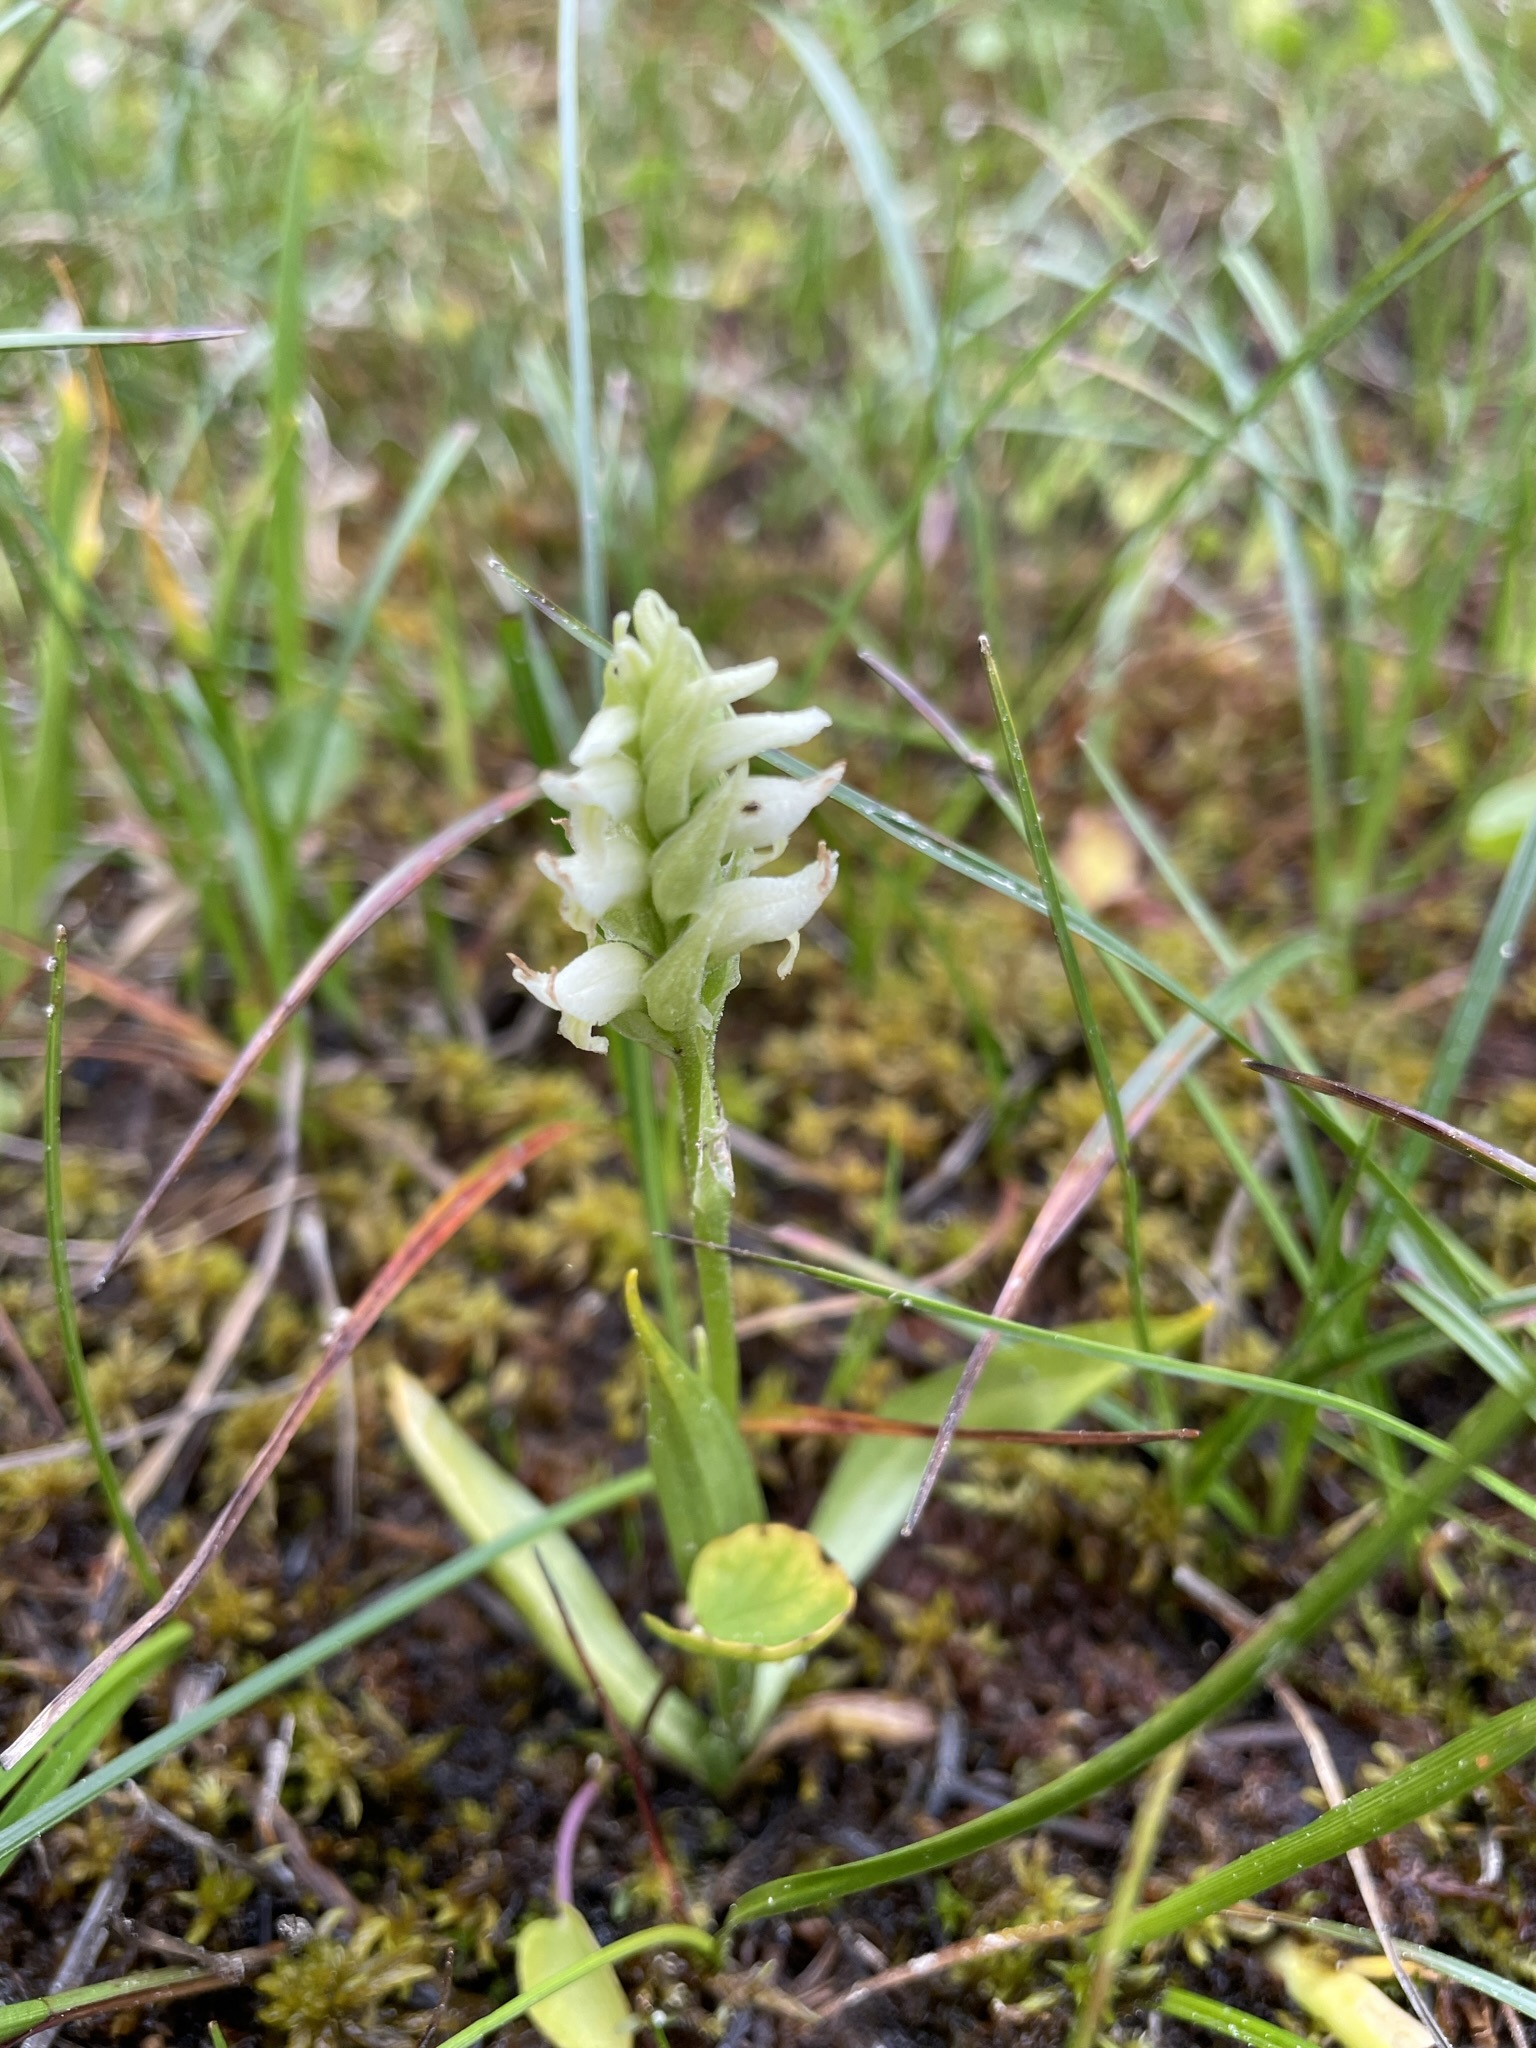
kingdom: Plantae
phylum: Tracheophyta
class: Liliopsida
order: Asparagales
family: Orchidaceae
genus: Spiranthes
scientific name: Spiranthes romanzoffiana
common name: Irish lady's-tresses
